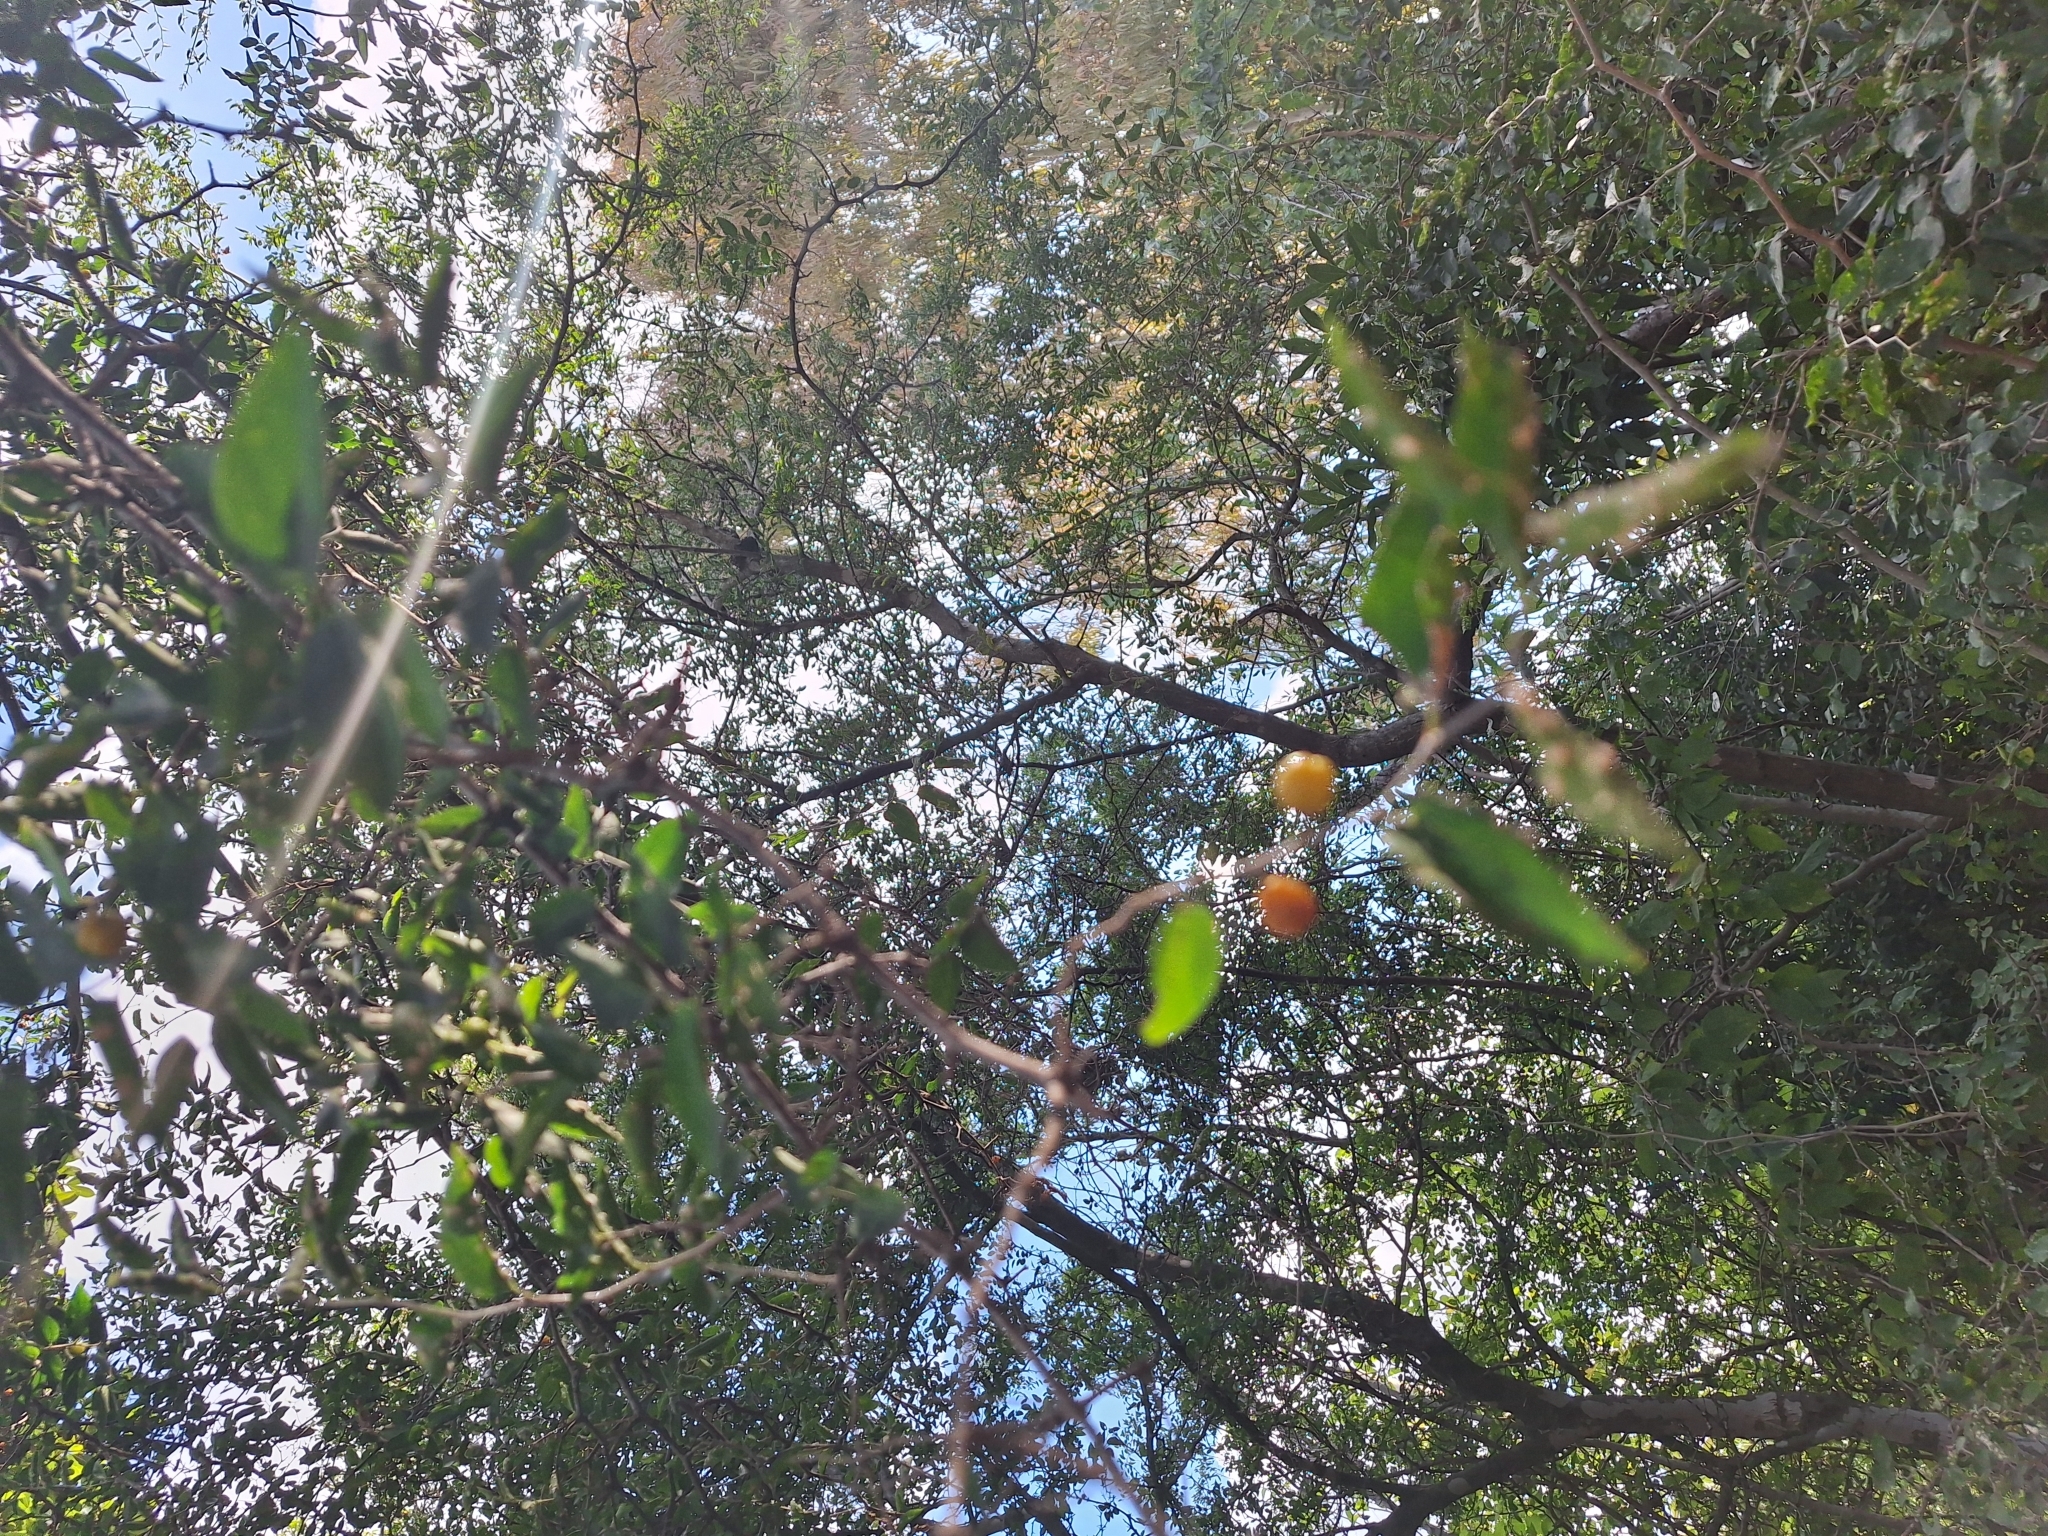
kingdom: Plantae
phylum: Tracheophyta
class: Magnoliopsida
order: Rosales
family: Cannabaceae
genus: Celtis
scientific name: Celtis tala
